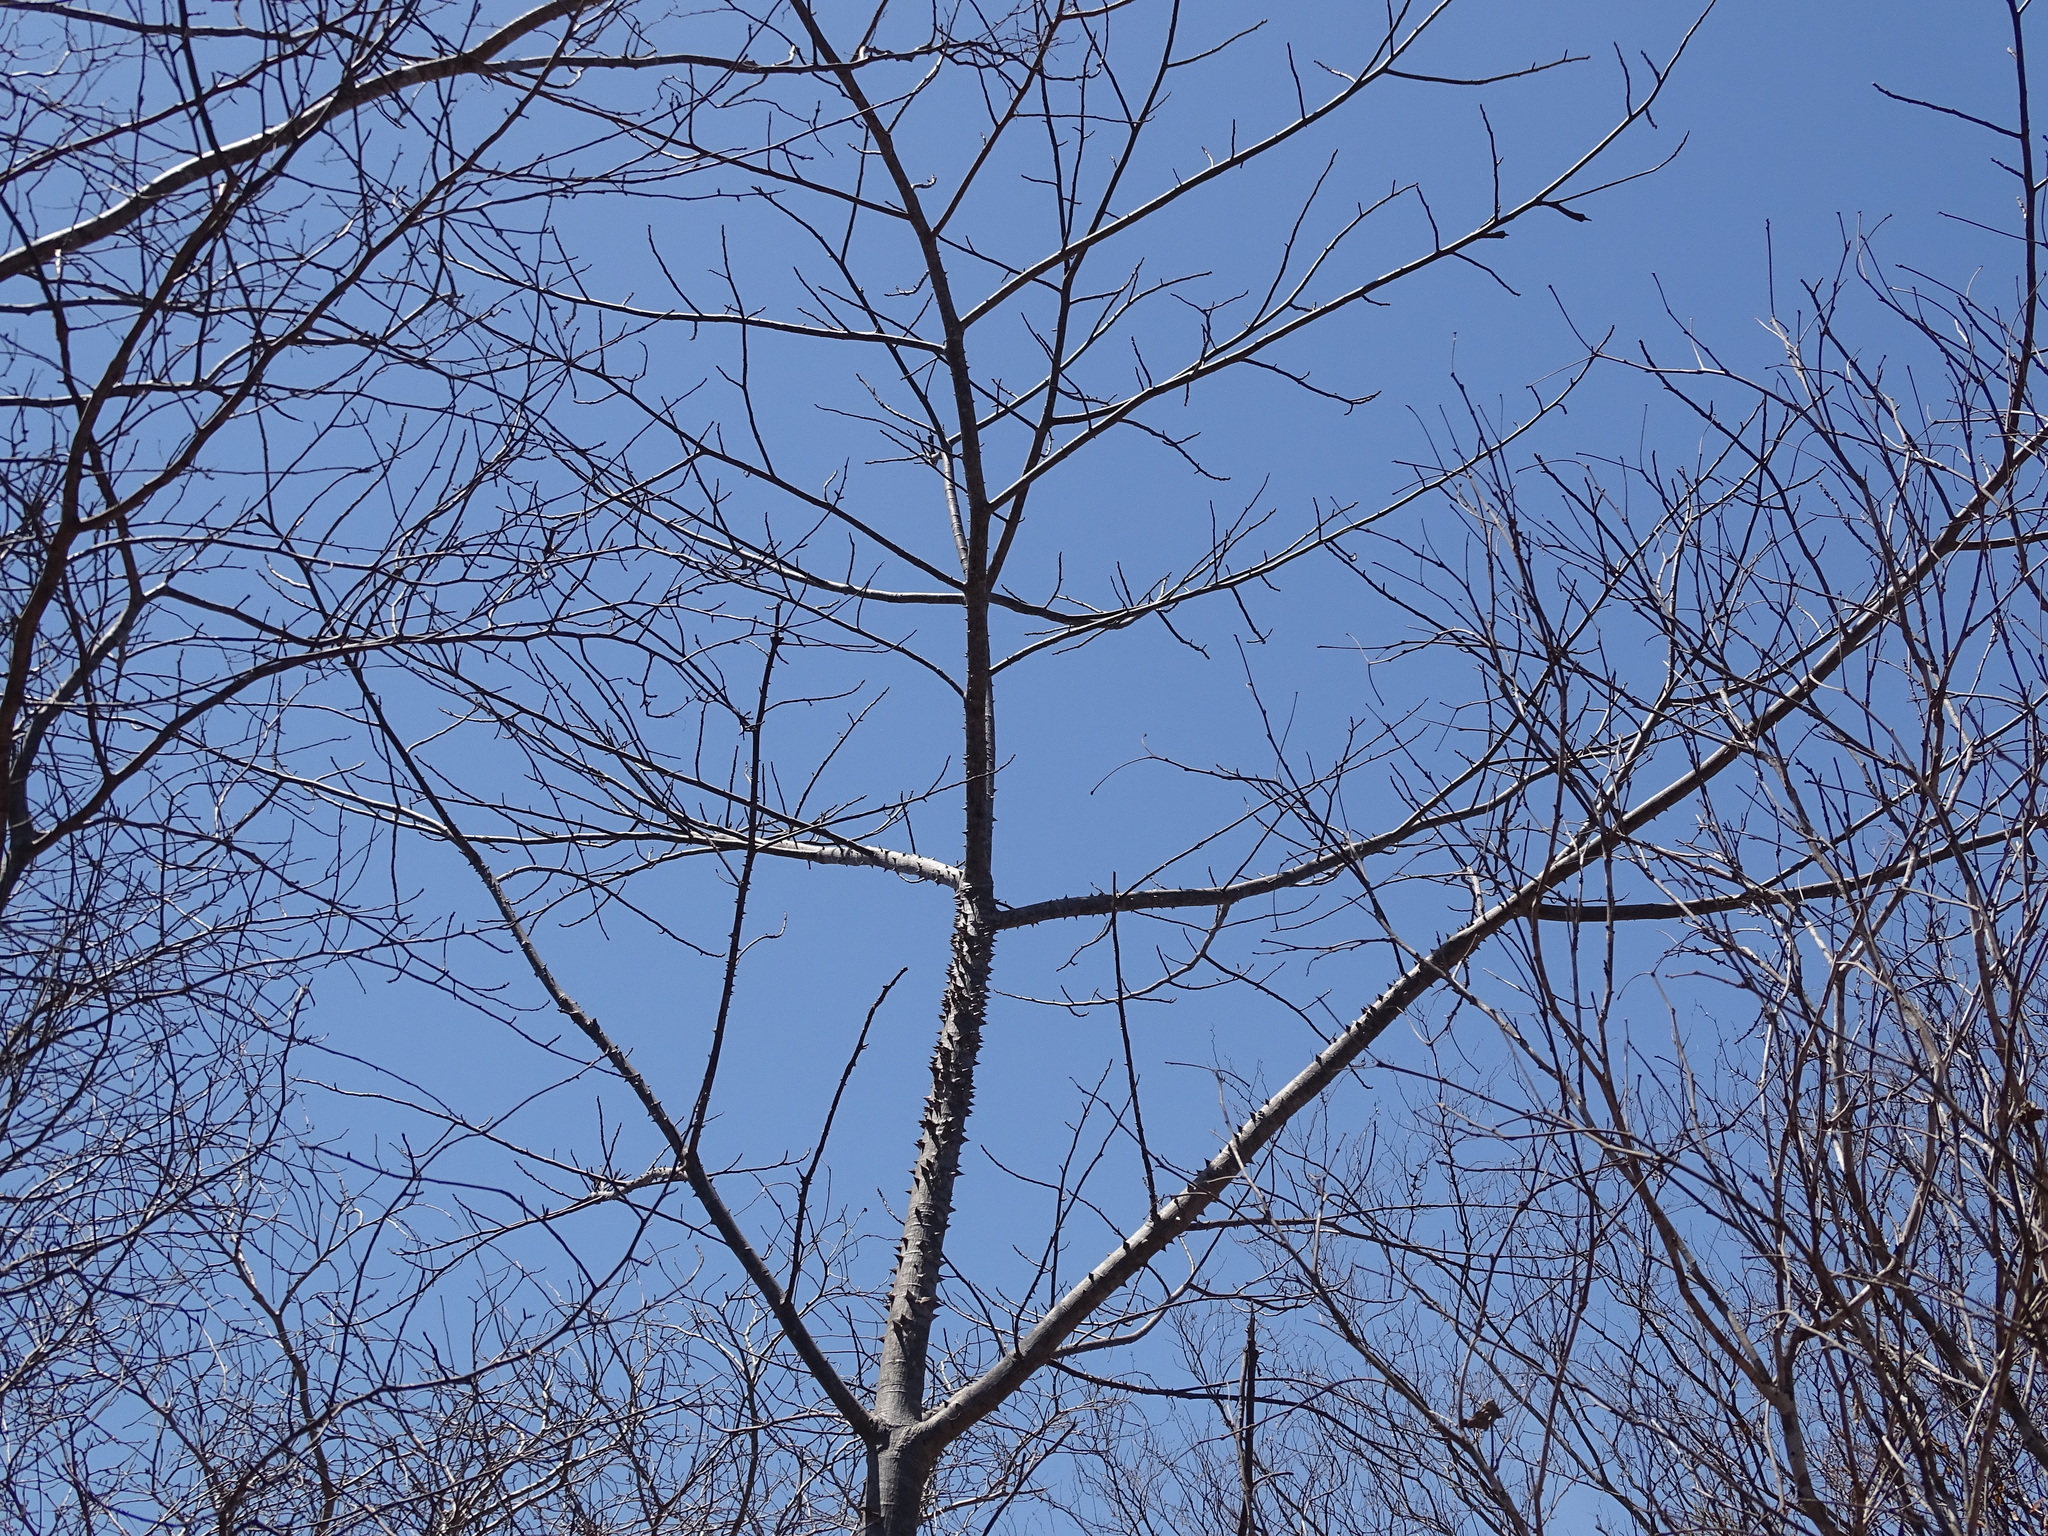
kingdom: Plantae
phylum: Tracheophyta
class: Magnoliopsida
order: Malvales
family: Malvaceae
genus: Ceiba
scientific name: Ceiba aesculifolia
